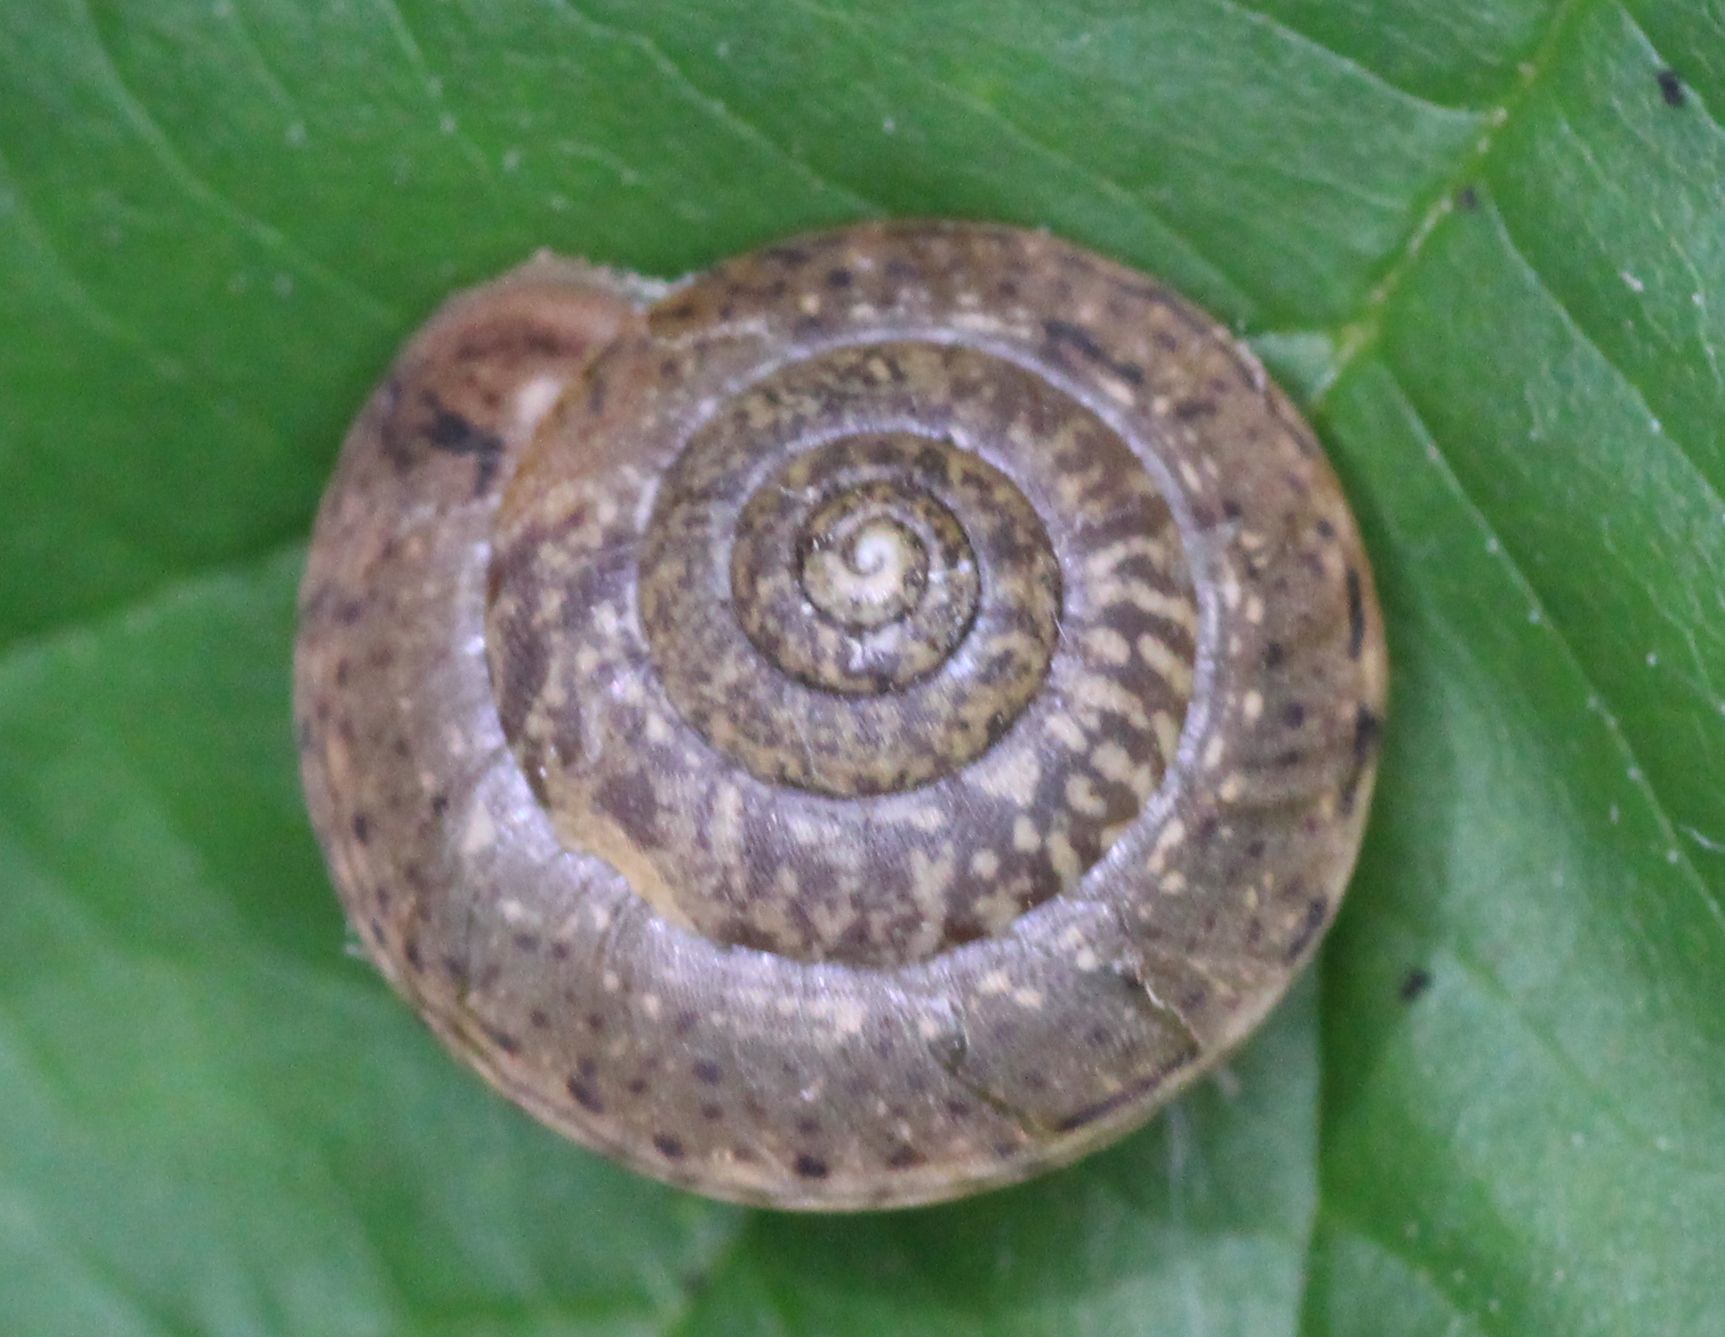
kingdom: Animalia
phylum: Mollusca
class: Gastropoda
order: Stylommatophora
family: Hygromiidae
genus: Monachoides
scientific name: Monachoides incarnatus
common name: Incarnate snail
